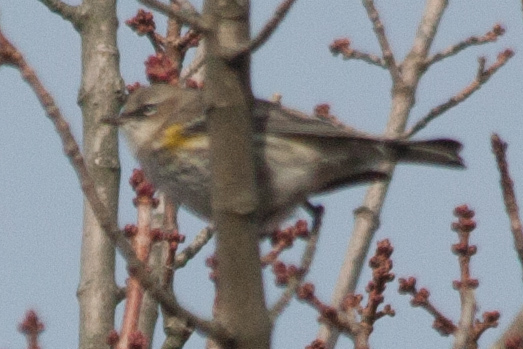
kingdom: Animalia
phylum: Chordata
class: Aves
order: Passeriformes
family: Parulidae
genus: Setophaga
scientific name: Setophaga coronata
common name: Myrtle warbler
